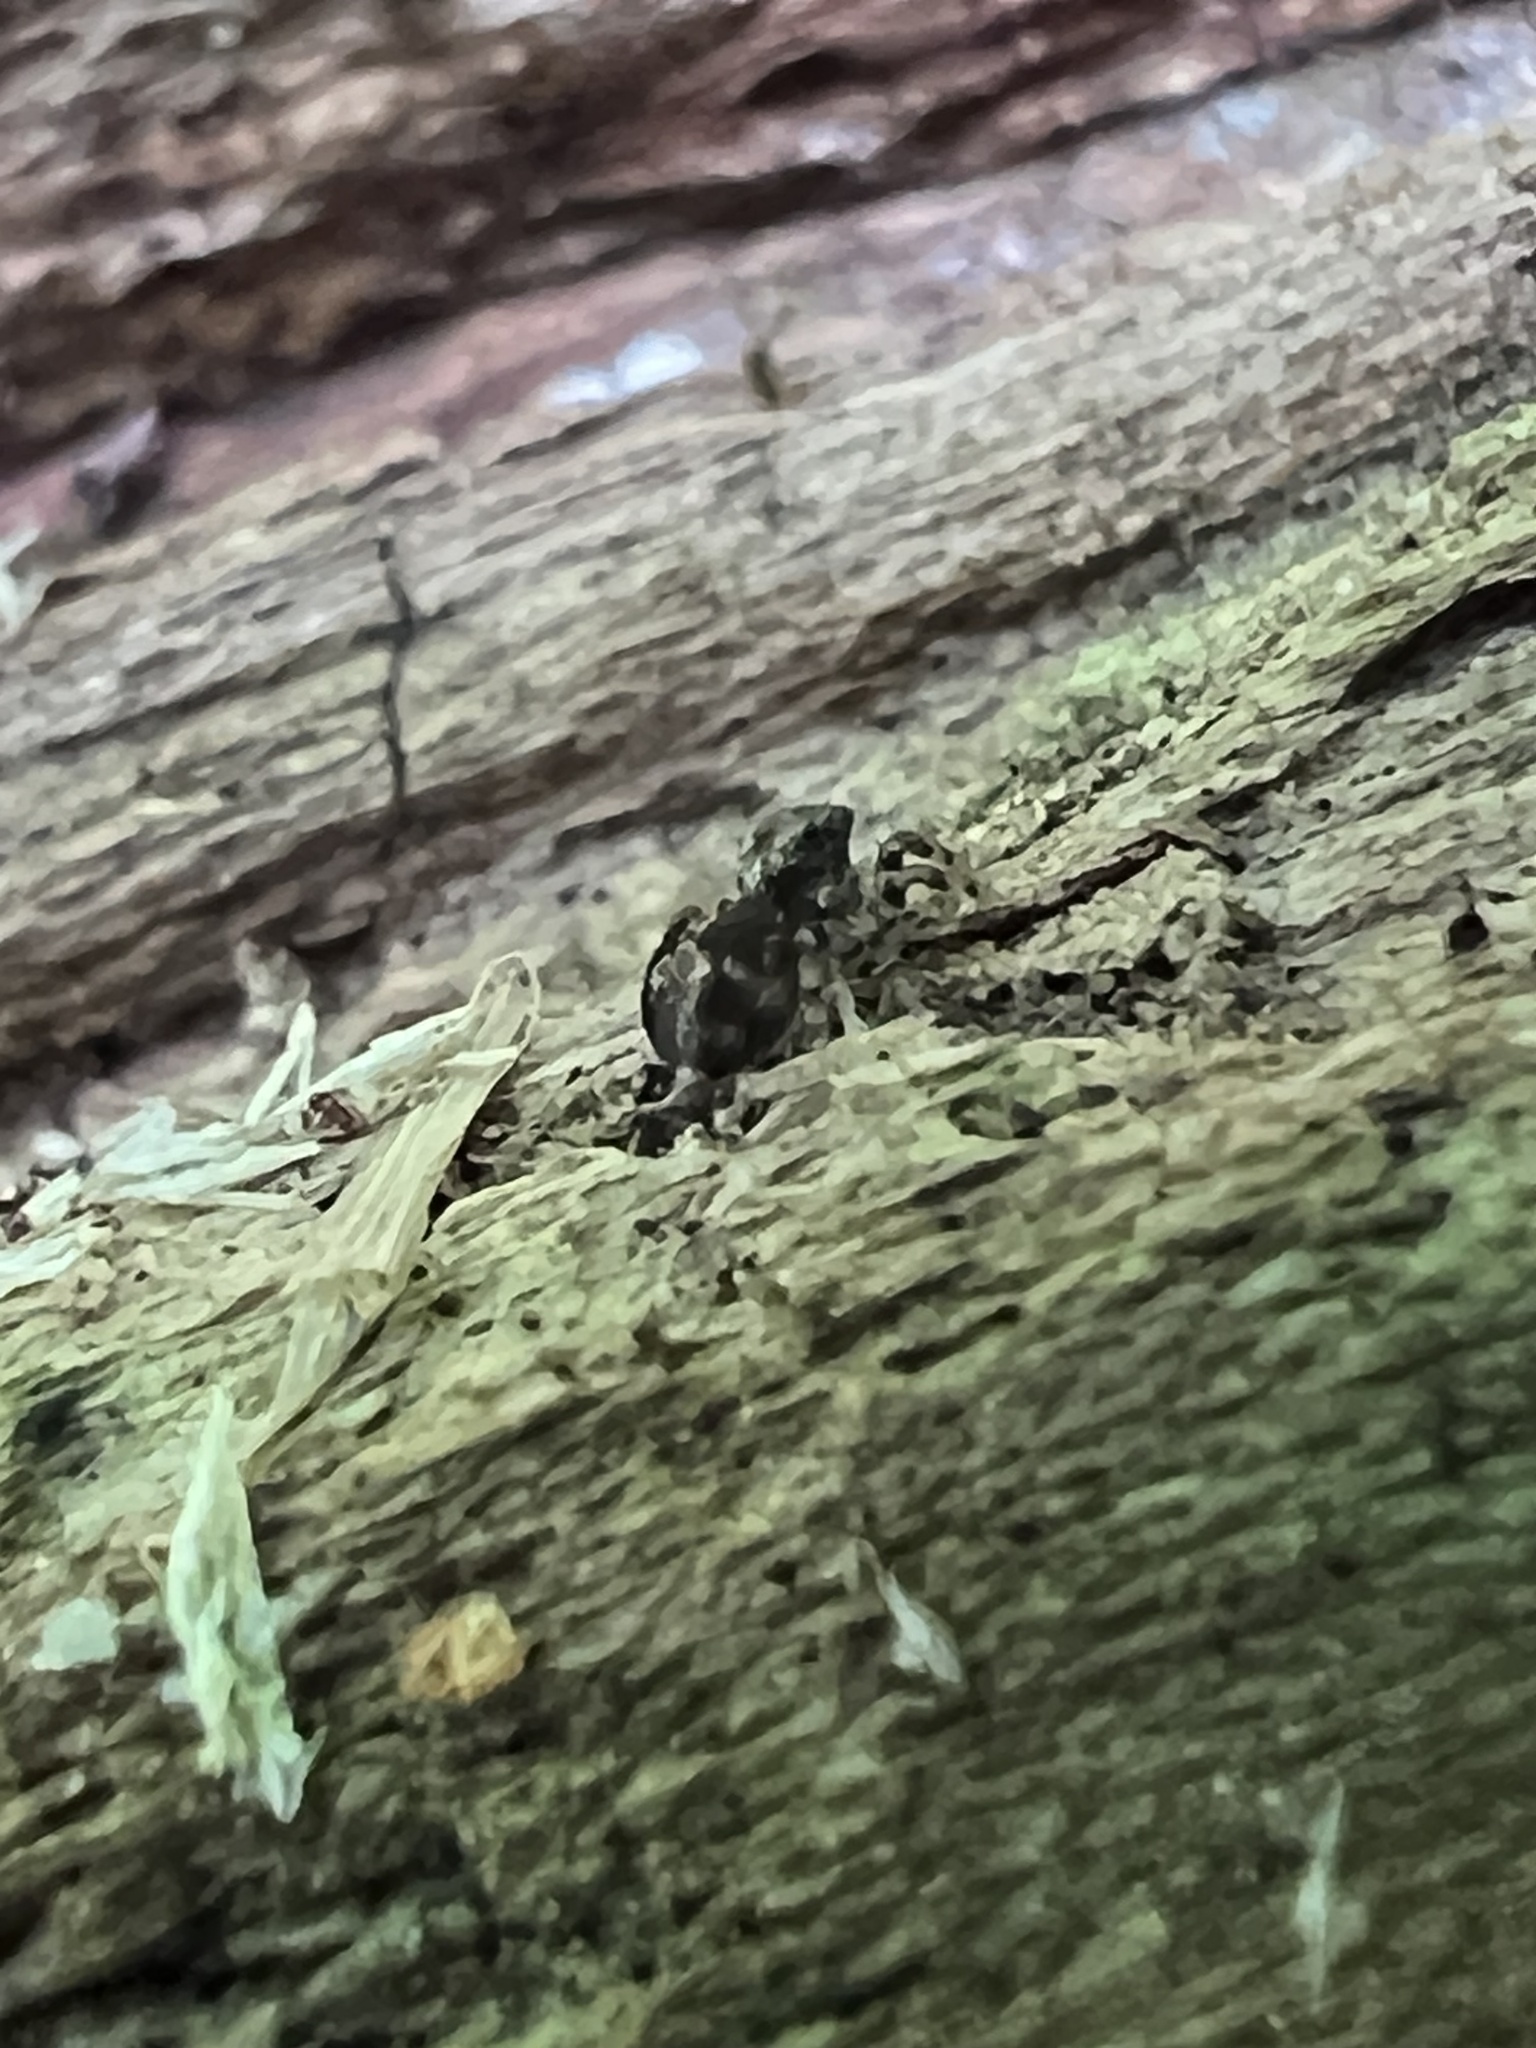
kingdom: Animalia
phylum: Arthropoda
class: Arachnida
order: Araneae
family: Salticidae
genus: Naphrys
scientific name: Naphrys pulex
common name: Flea jumping spider
